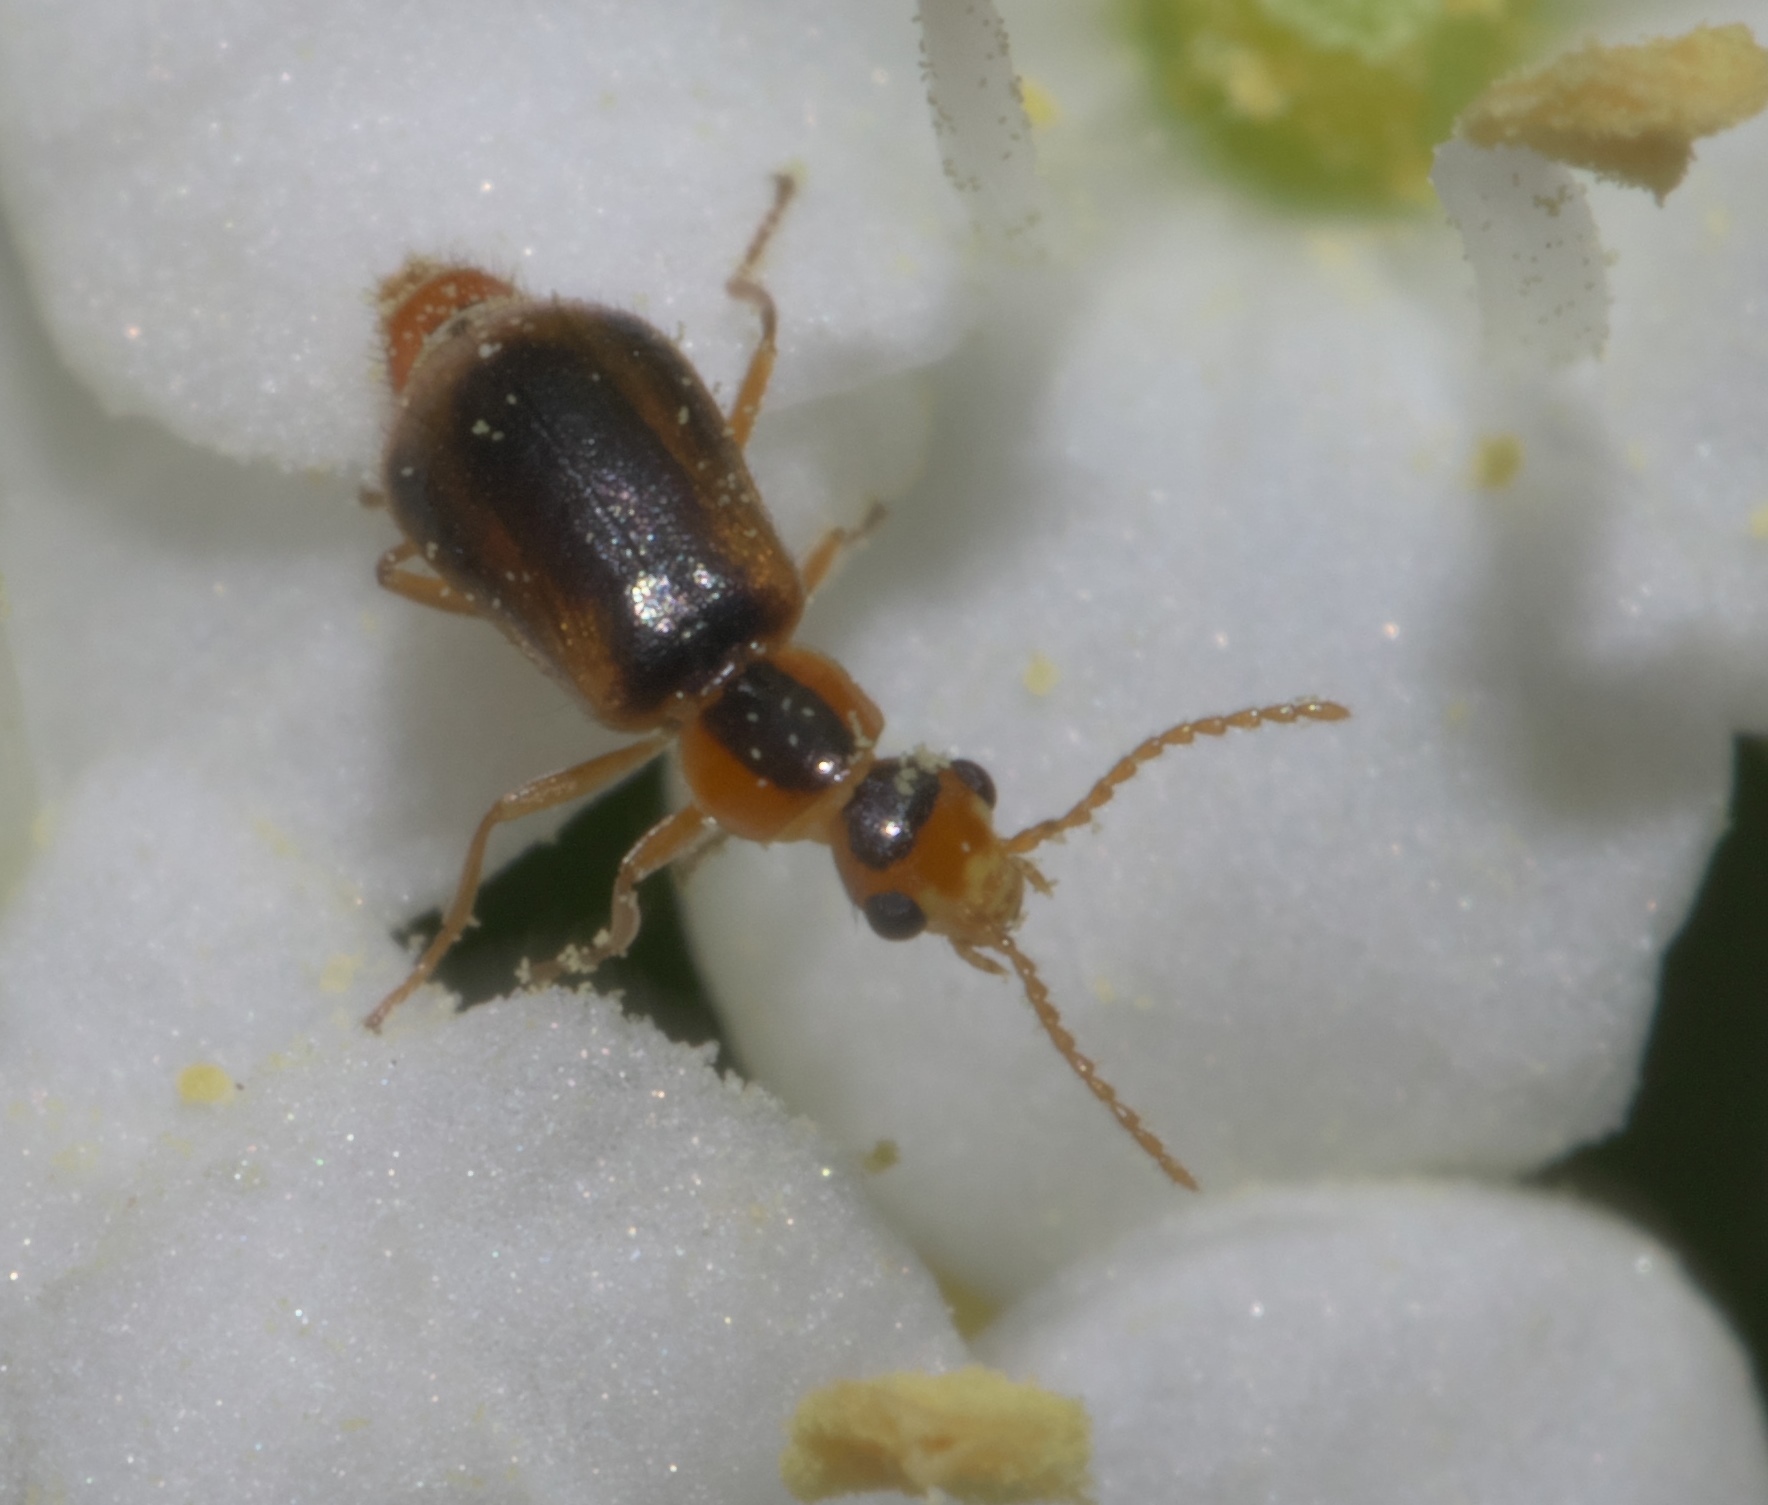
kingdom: Animalia
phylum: Arthropoda
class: Insecta
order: Coleoptera
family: Malachiidae
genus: Attalus
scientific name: Attalus
